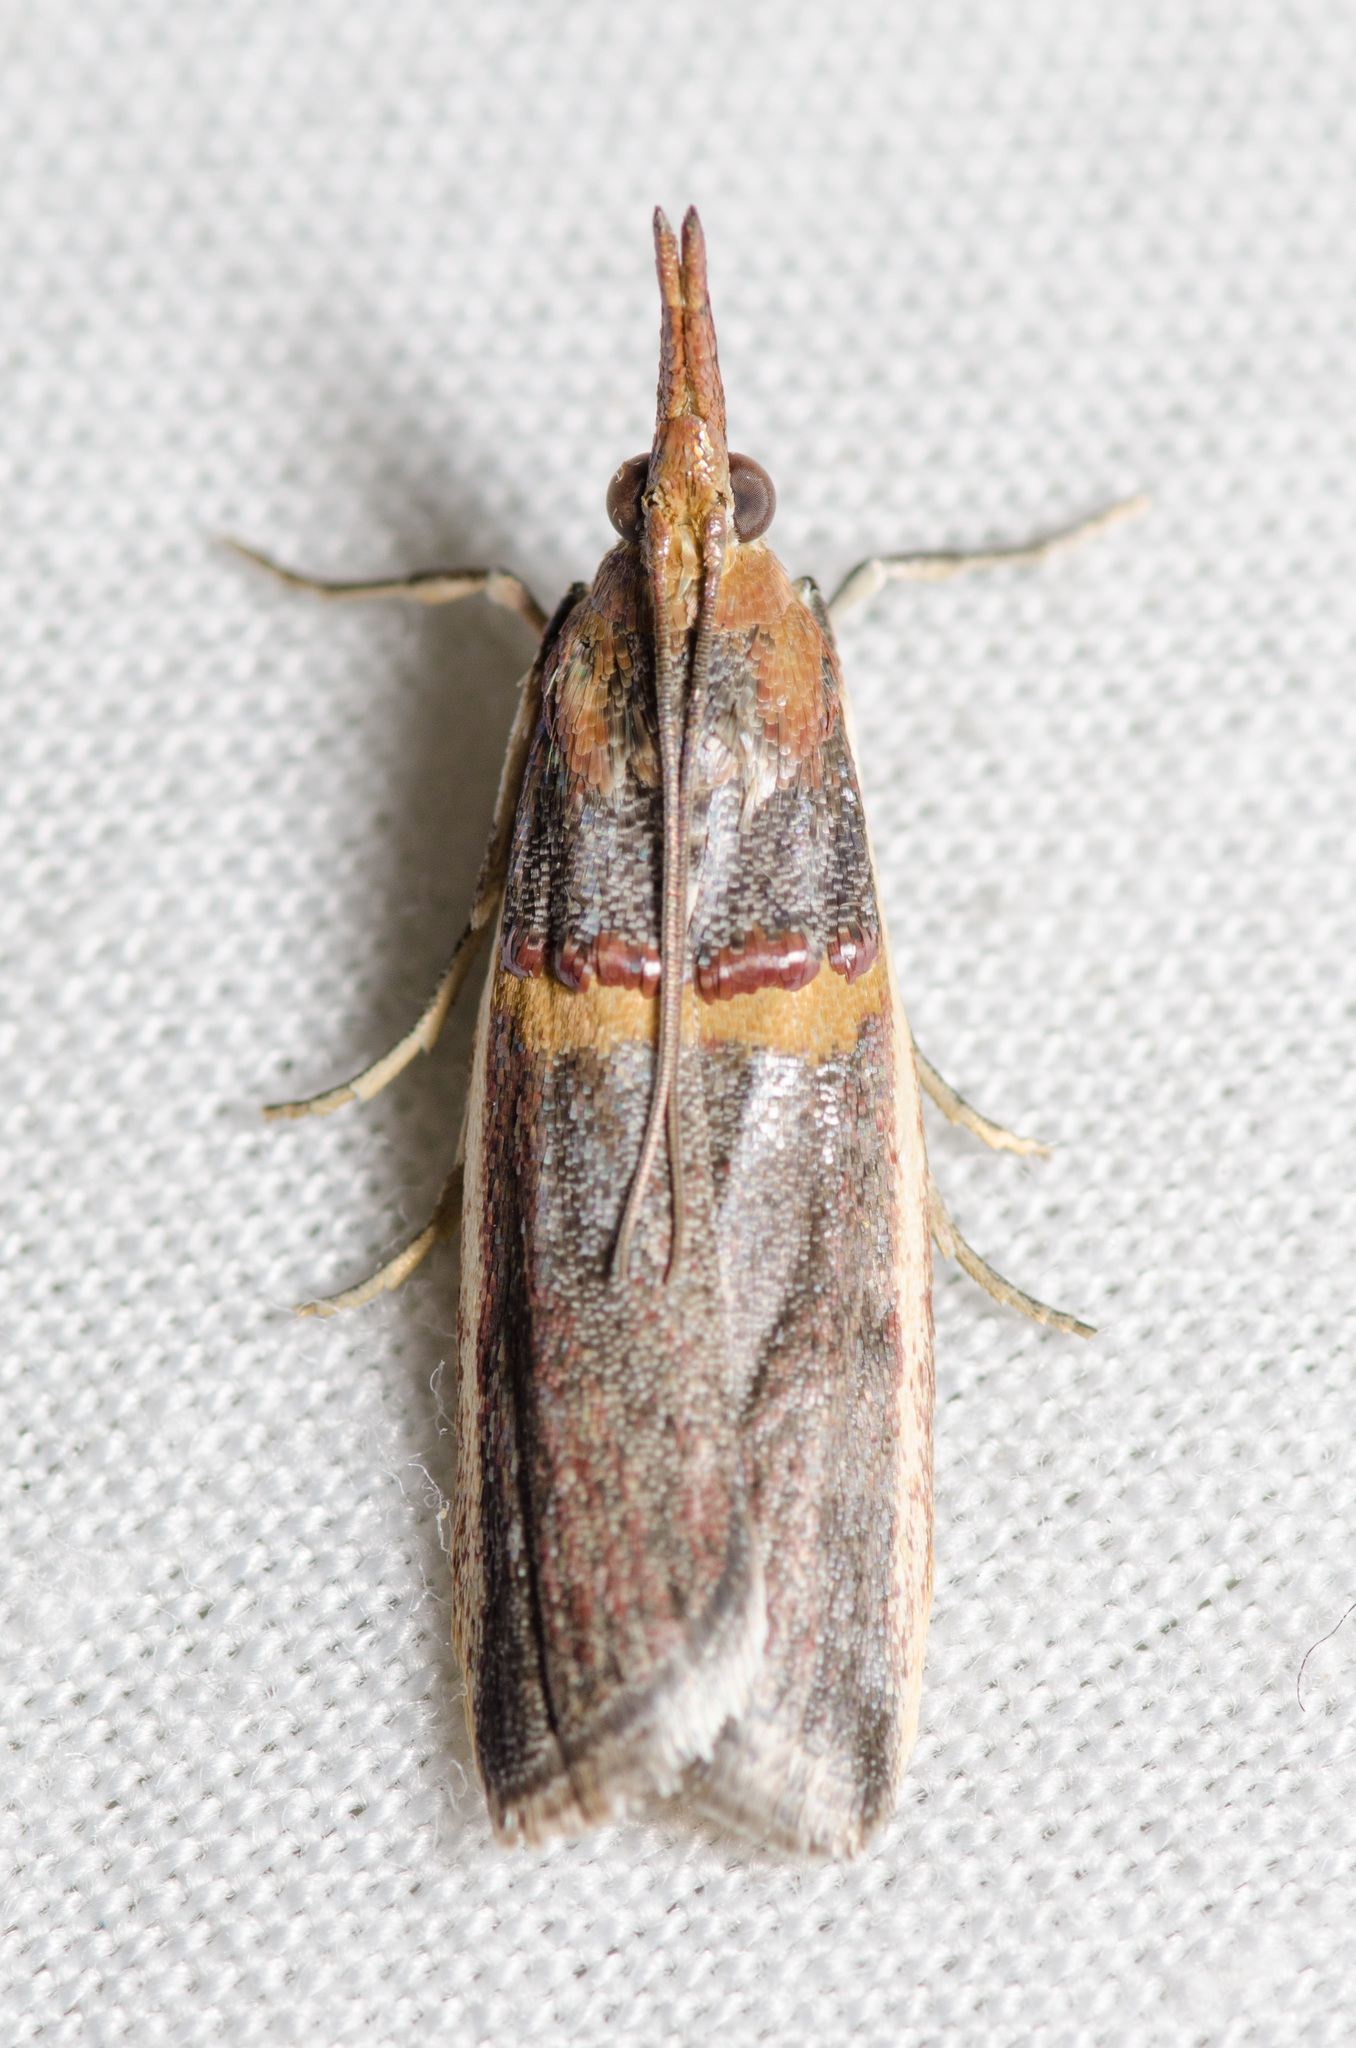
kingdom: Animalia
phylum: Arthropoda
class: Insecta
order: Lepidoptera
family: Pyralidae
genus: Etiella
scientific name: Etiella zinckenella
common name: Gold-banded etiella moth
